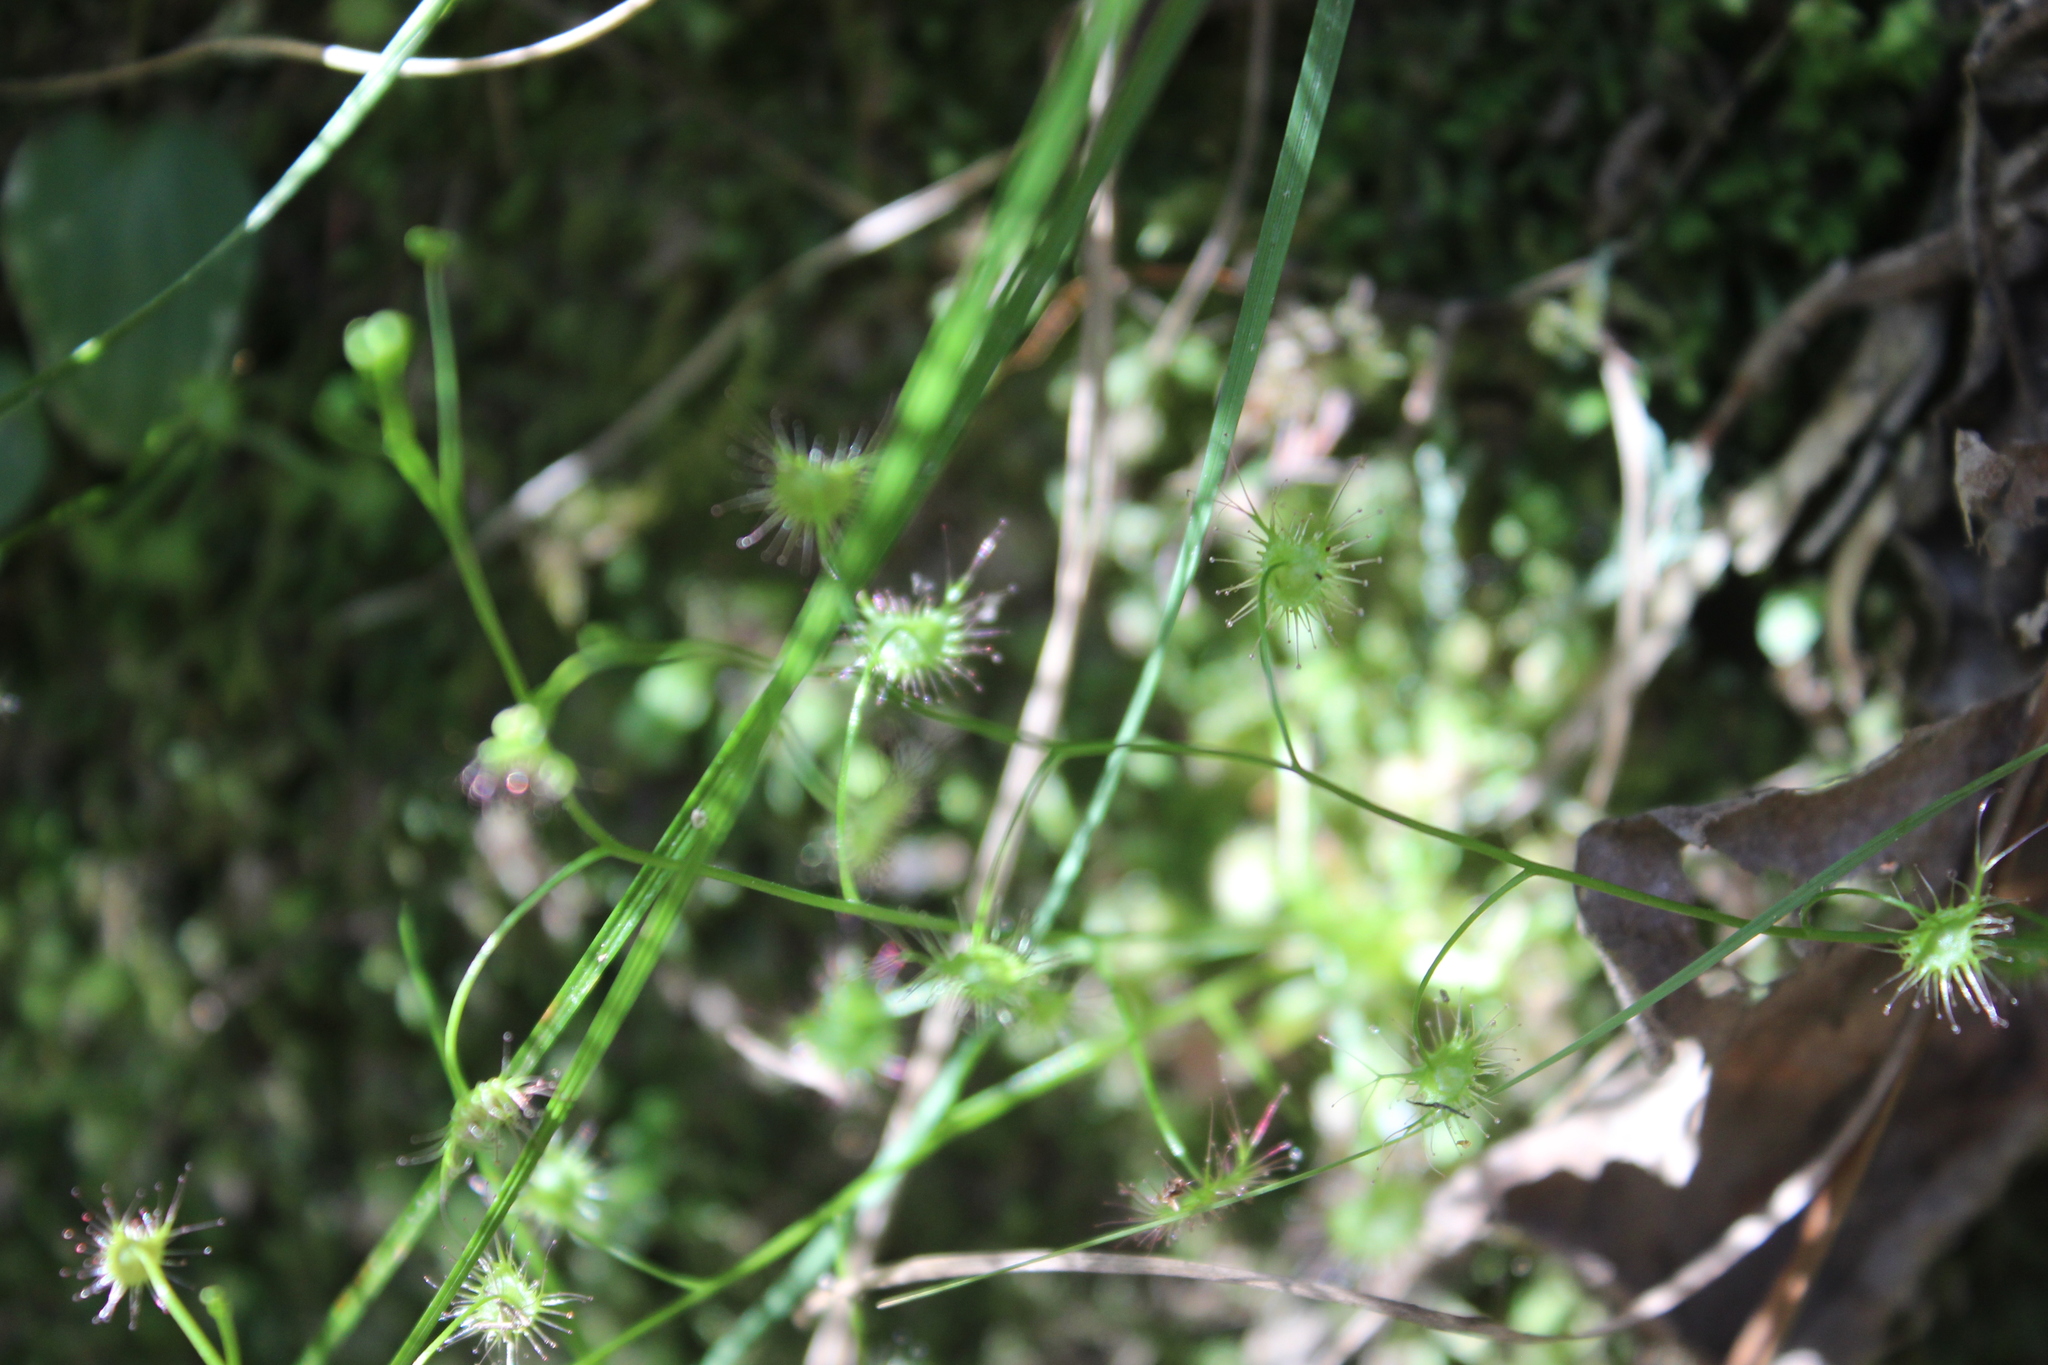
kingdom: Plantae
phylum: Tracheophyta
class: Magnoliopsida
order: Caryophyllales
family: Droseraceae
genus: Drosera
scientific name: Drosera peltata
